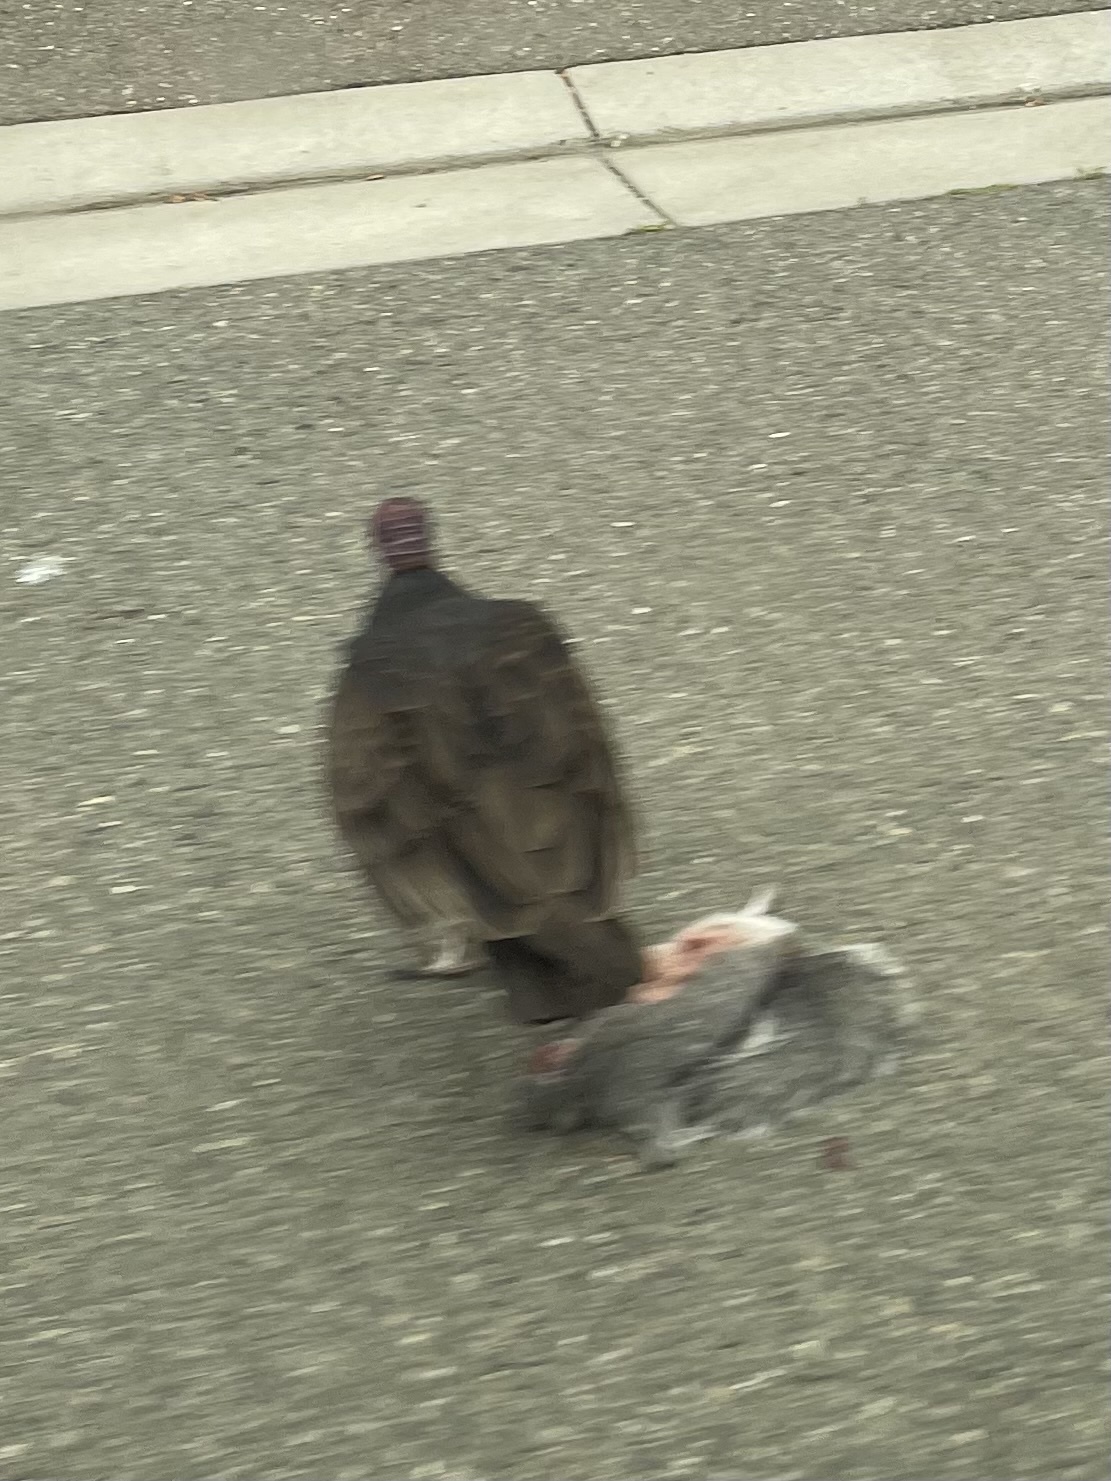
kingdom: Animalia
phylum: Chordata
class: Aves
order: Accipitriformes
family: Cathartidae
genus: Cathartes
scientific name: Cathartes aura
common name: Turkey vulture
